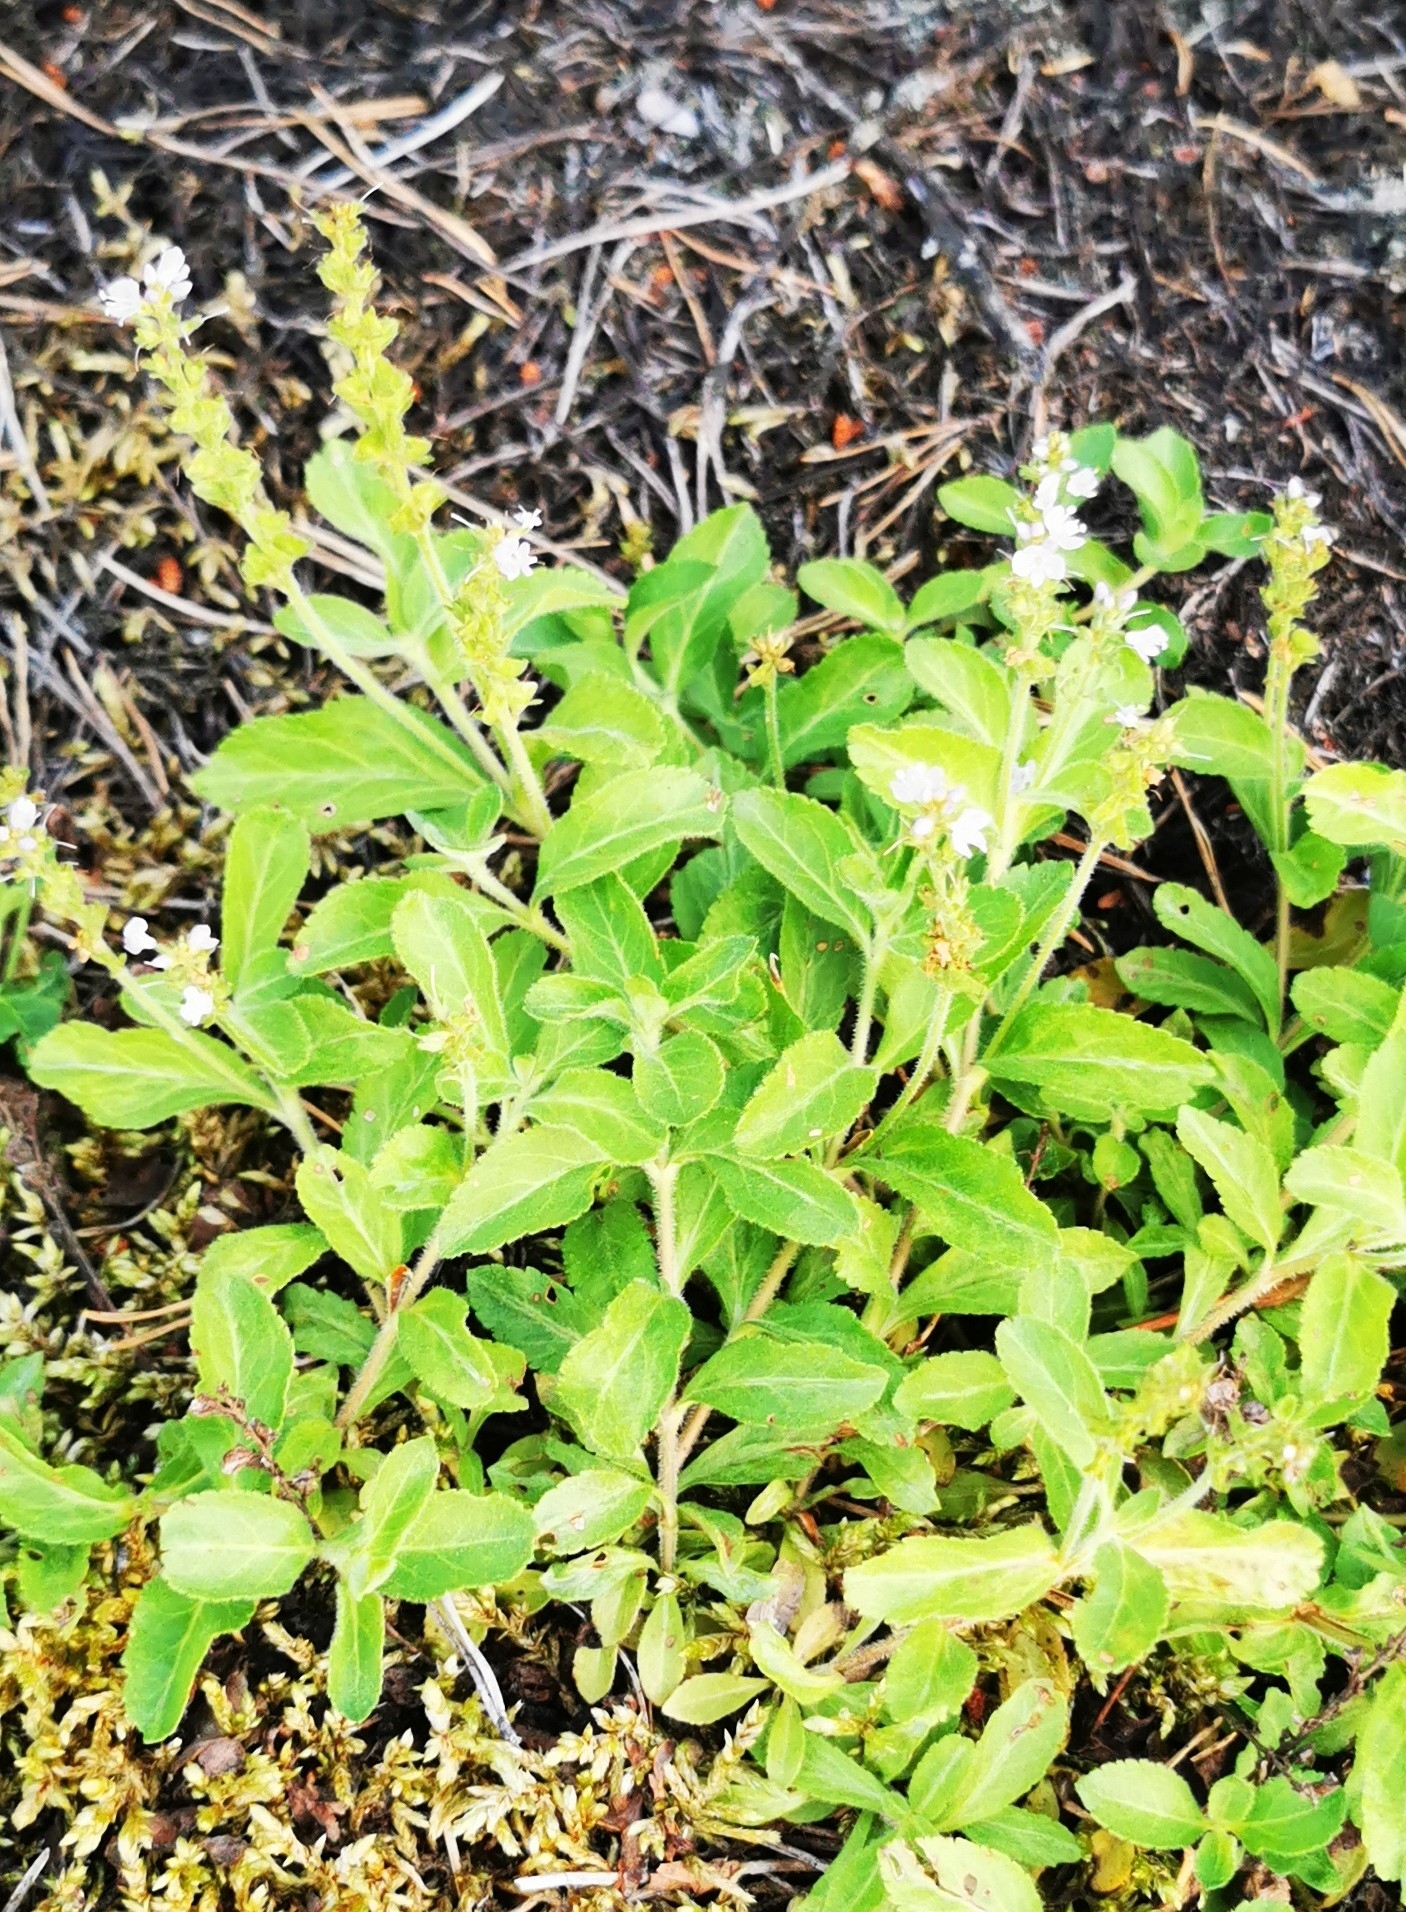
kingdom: Plantae
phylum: Tracheophyta
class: Magnoliopsida
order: Lamiales
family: Plantaginaceae
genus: Veronica
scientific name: Veronica officinalis
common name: Common speedwell
